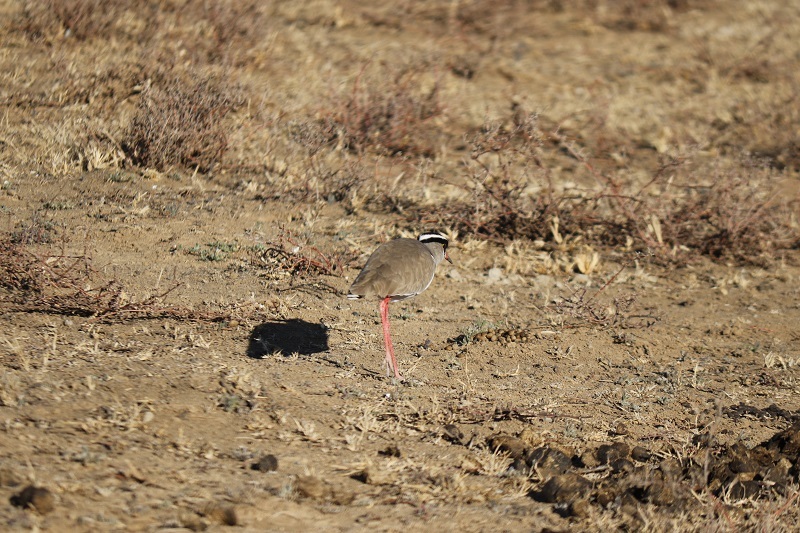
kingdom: Animalia
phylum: Chordata
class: Aves
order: Charadriiformes
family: Charadriidae
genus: Vanellus
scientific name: Vanellus coronatus
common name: Crowned lapwing
